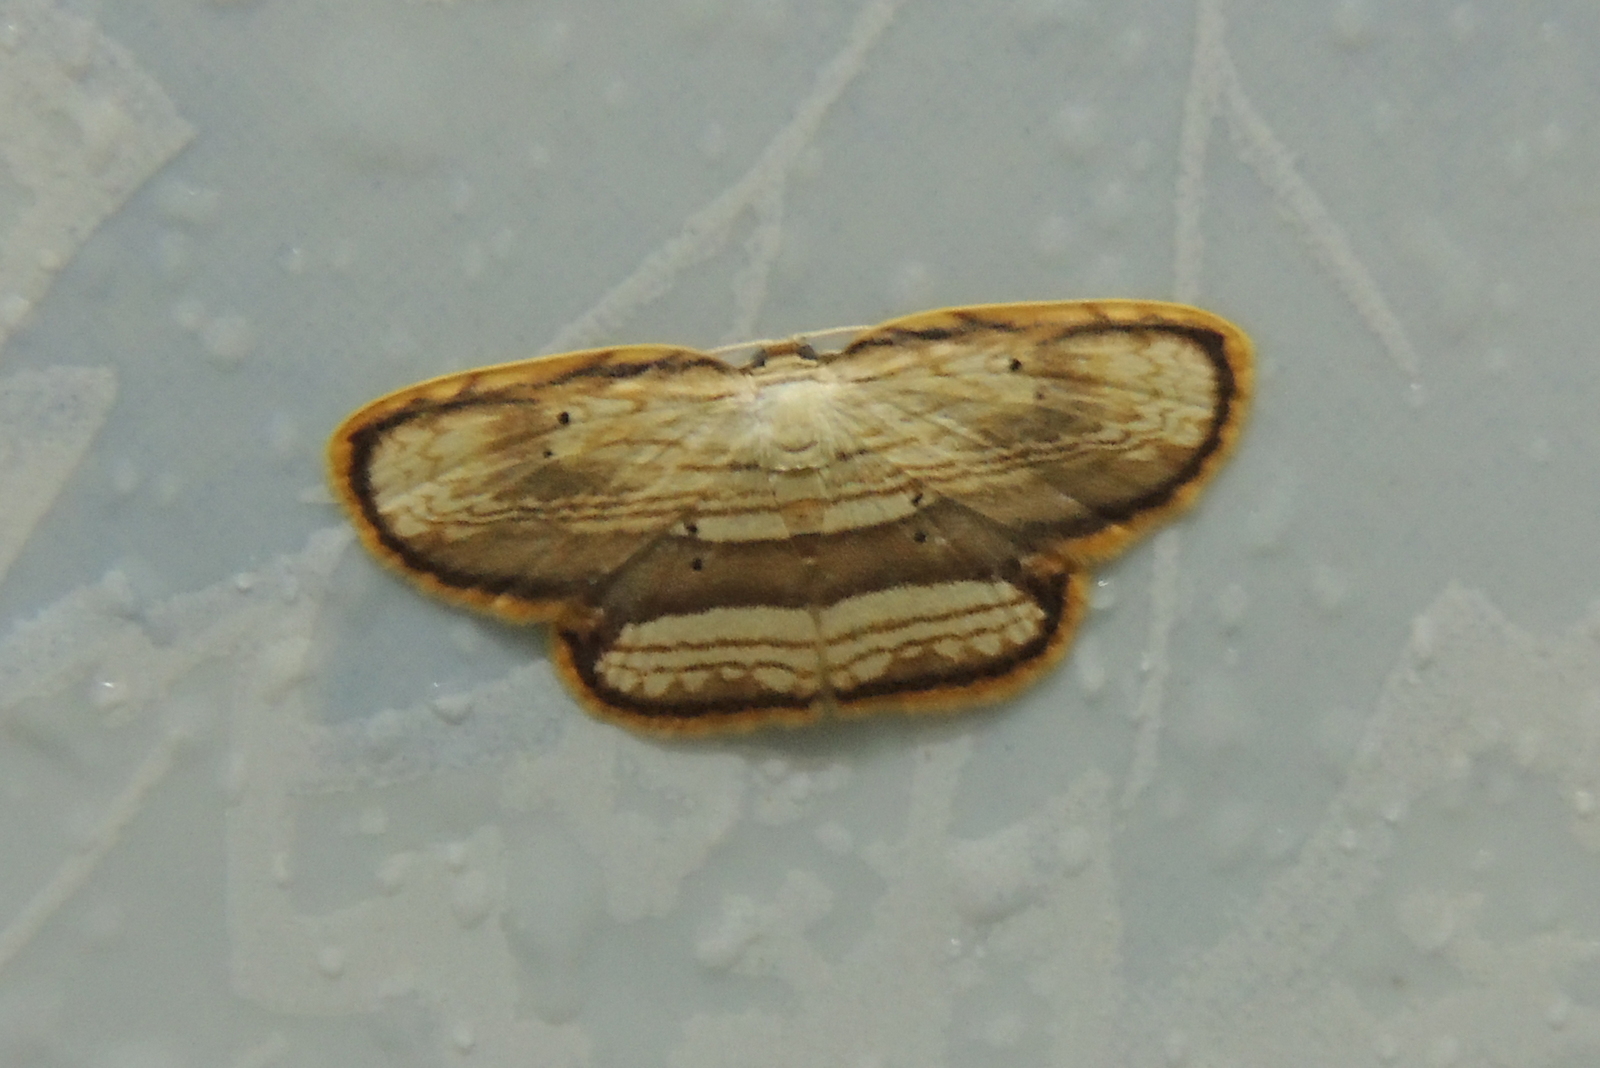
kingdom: Animalia
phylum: Arthropoda
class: Insecta
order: Lepidoptera
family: Drepanidae
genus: Drapetodes
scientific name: Drapetodes fratercula
